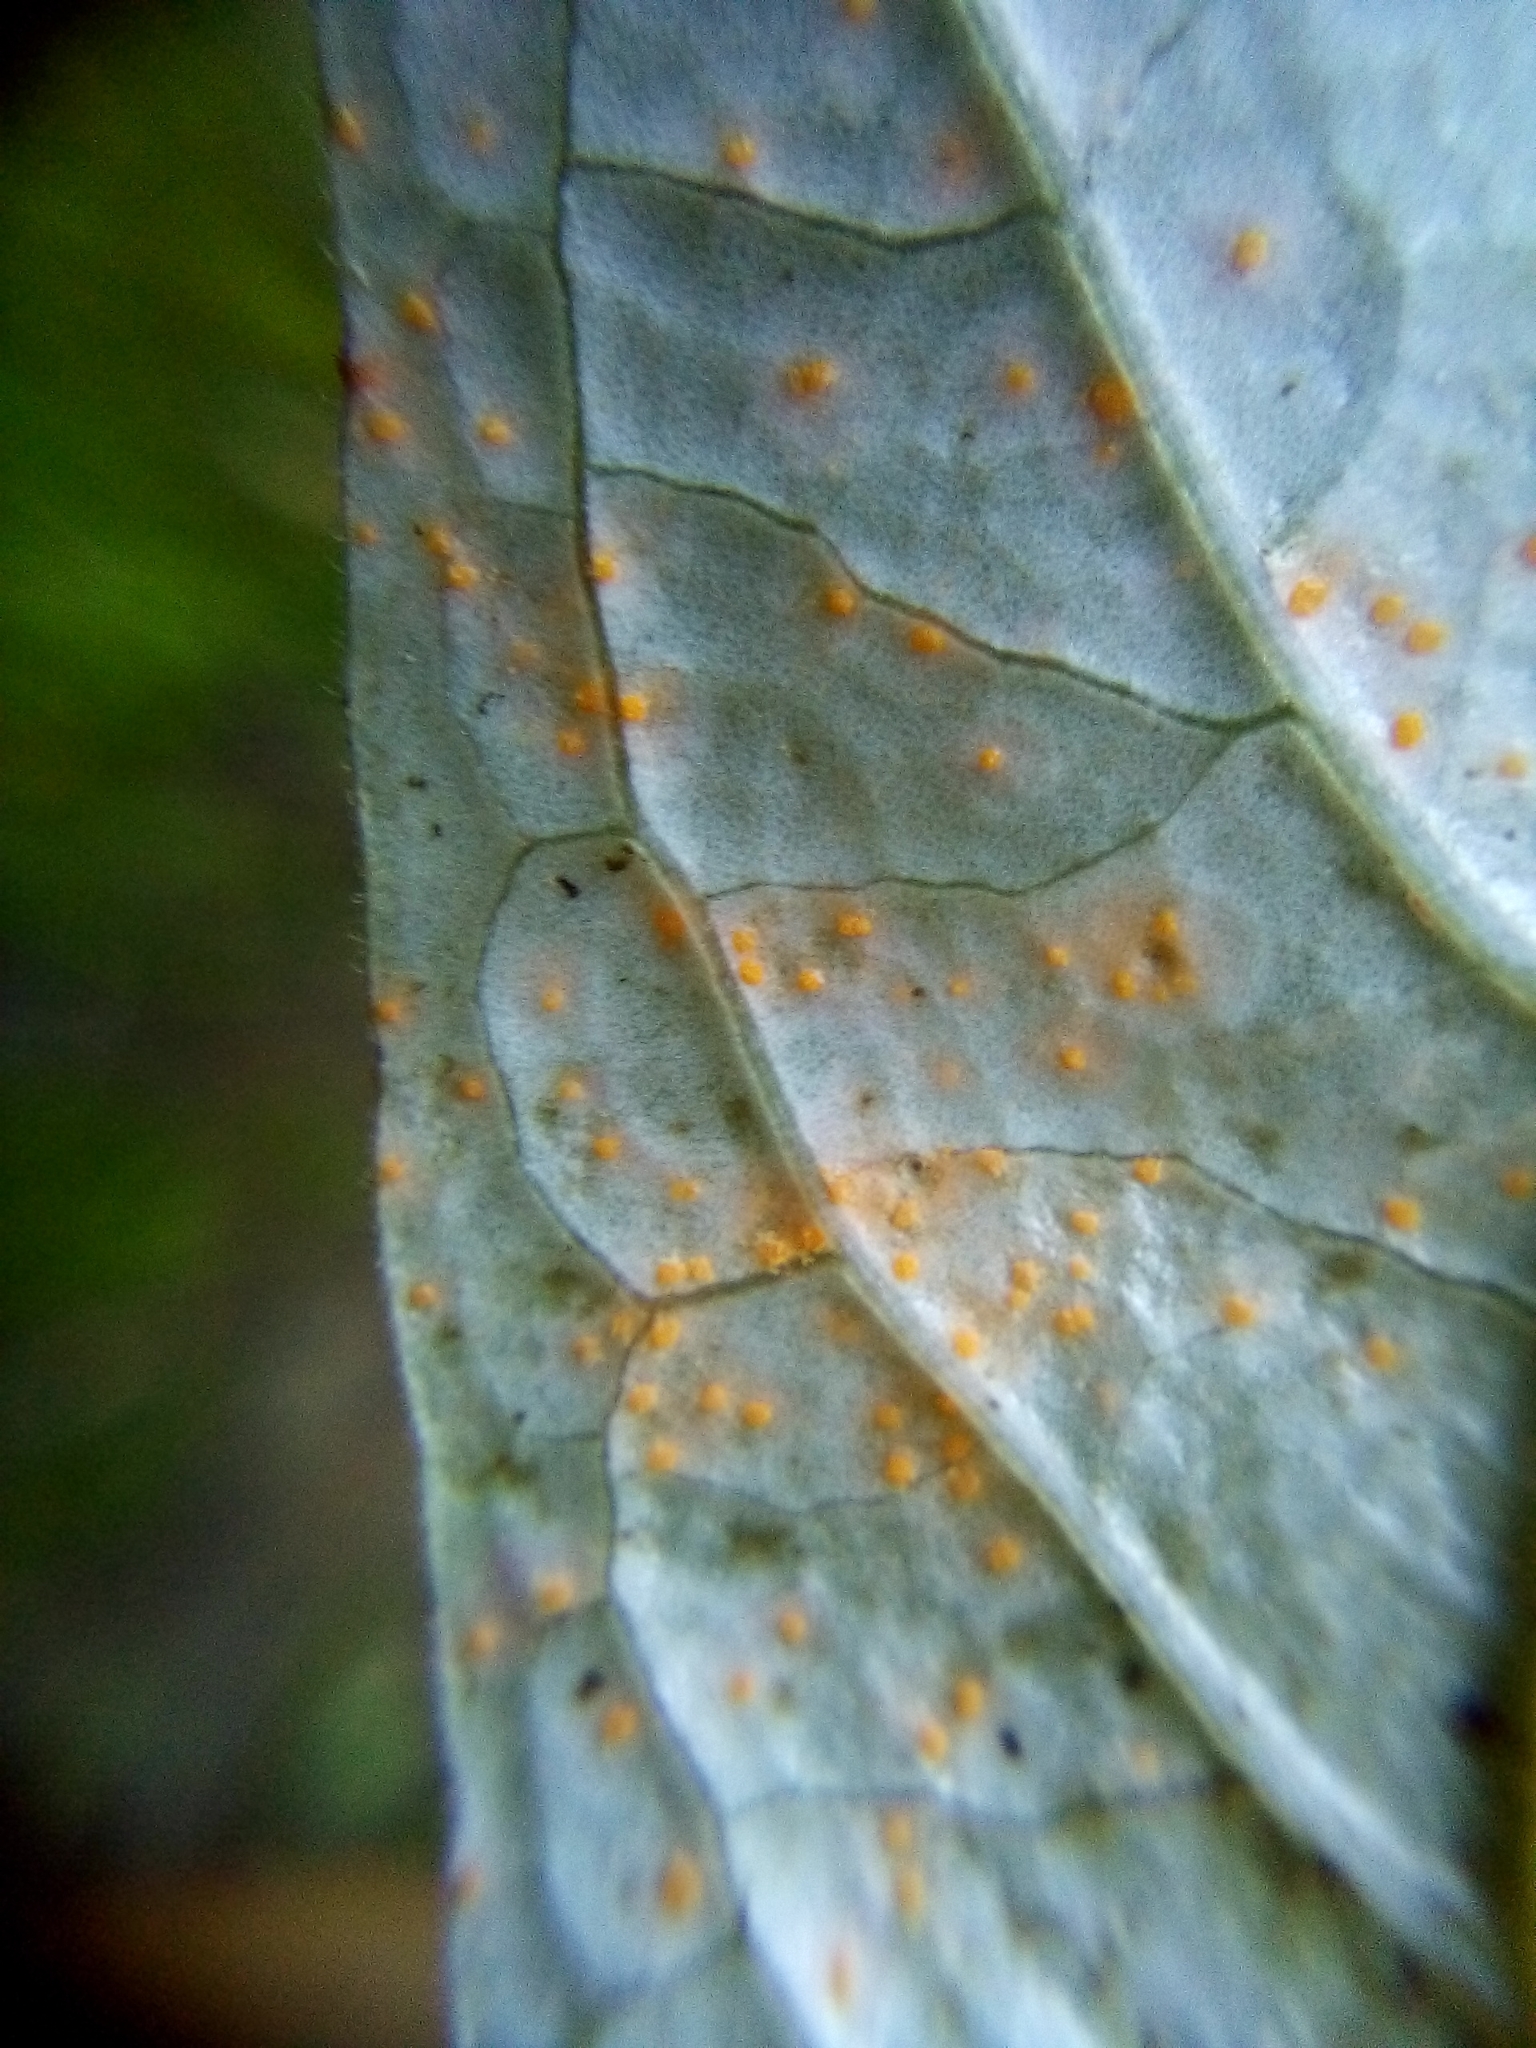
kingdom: Fungi
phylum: Basidiomycota
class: Pucciniomycetes
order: Pucciniales
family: Mikronegeriaceae
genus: Mikronegeria
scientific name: Mikronegeria fuchsiae
